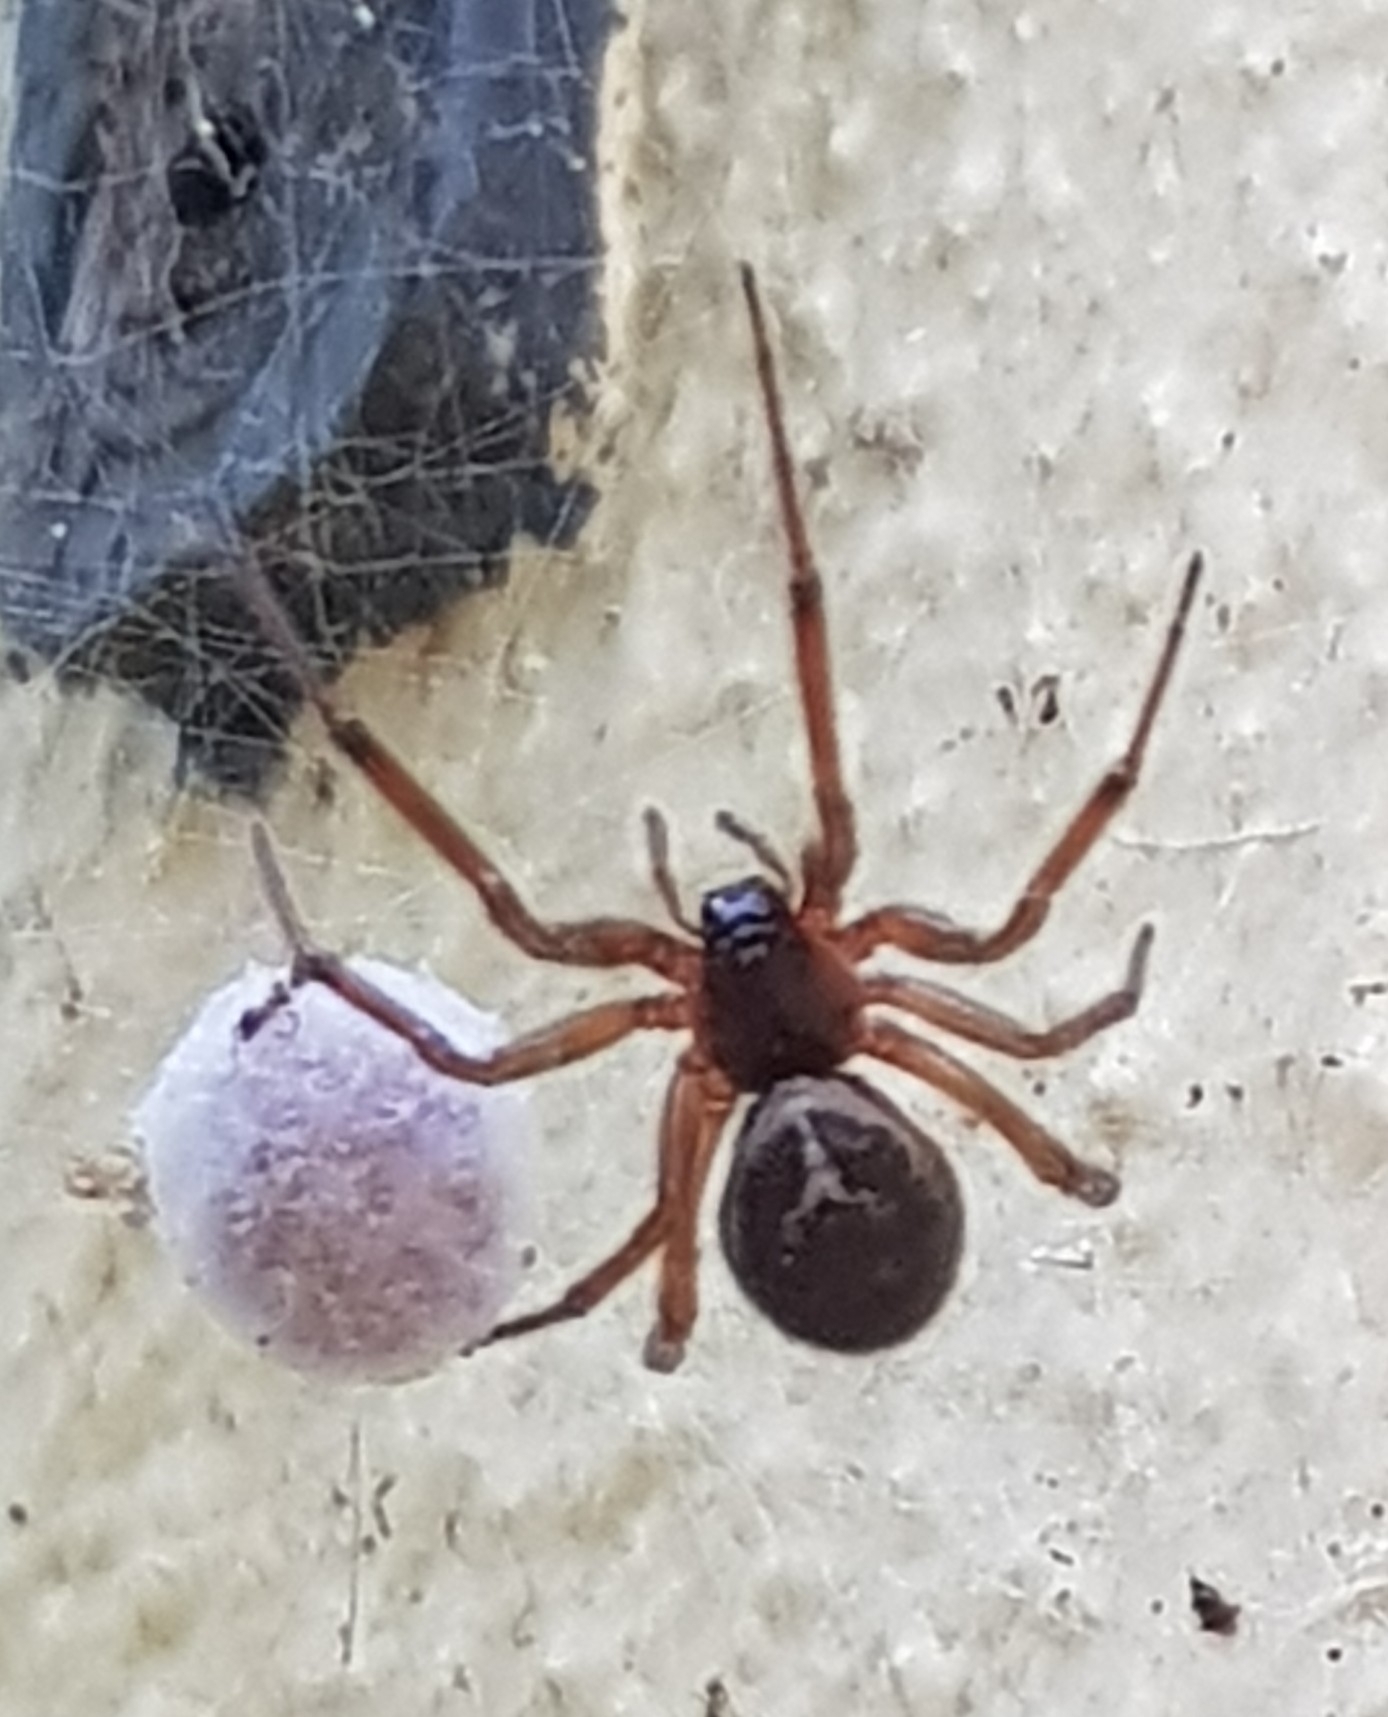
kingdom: Animalia
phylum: Arthropoda
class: Arachnida
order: Araneae
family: Theridiidae
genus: Steatoda
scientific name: Steatoda nobilis
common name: Cobweb weaver
